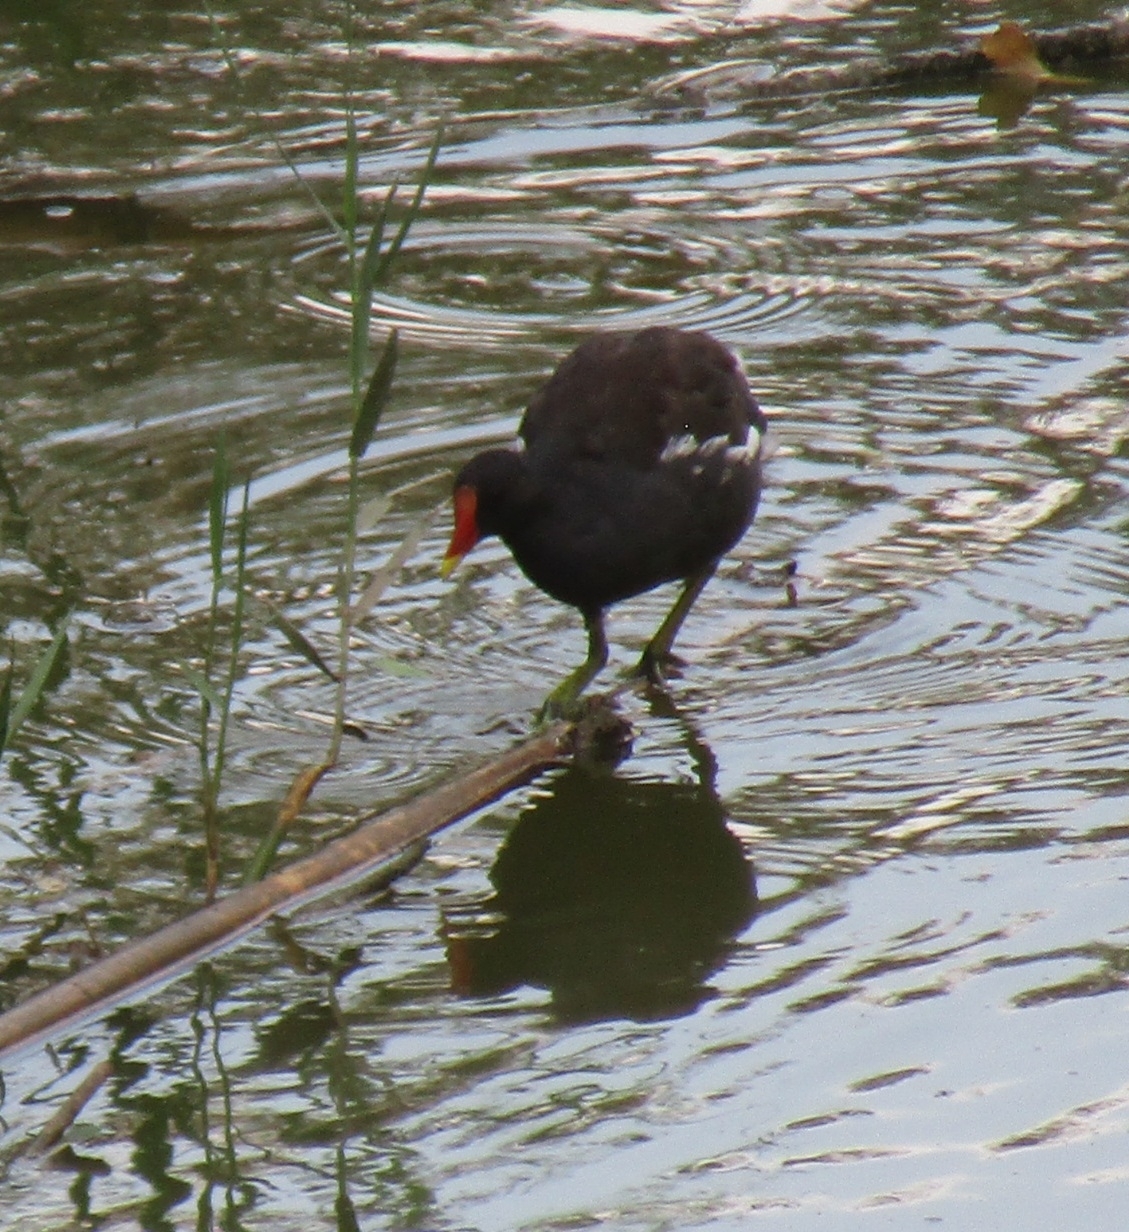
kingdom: Animalia
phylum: Chordata
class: Aves
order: Gruiformes
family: Rallidae
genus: Gallinula
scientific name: Gallinula chloropus
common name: Common moorhen
